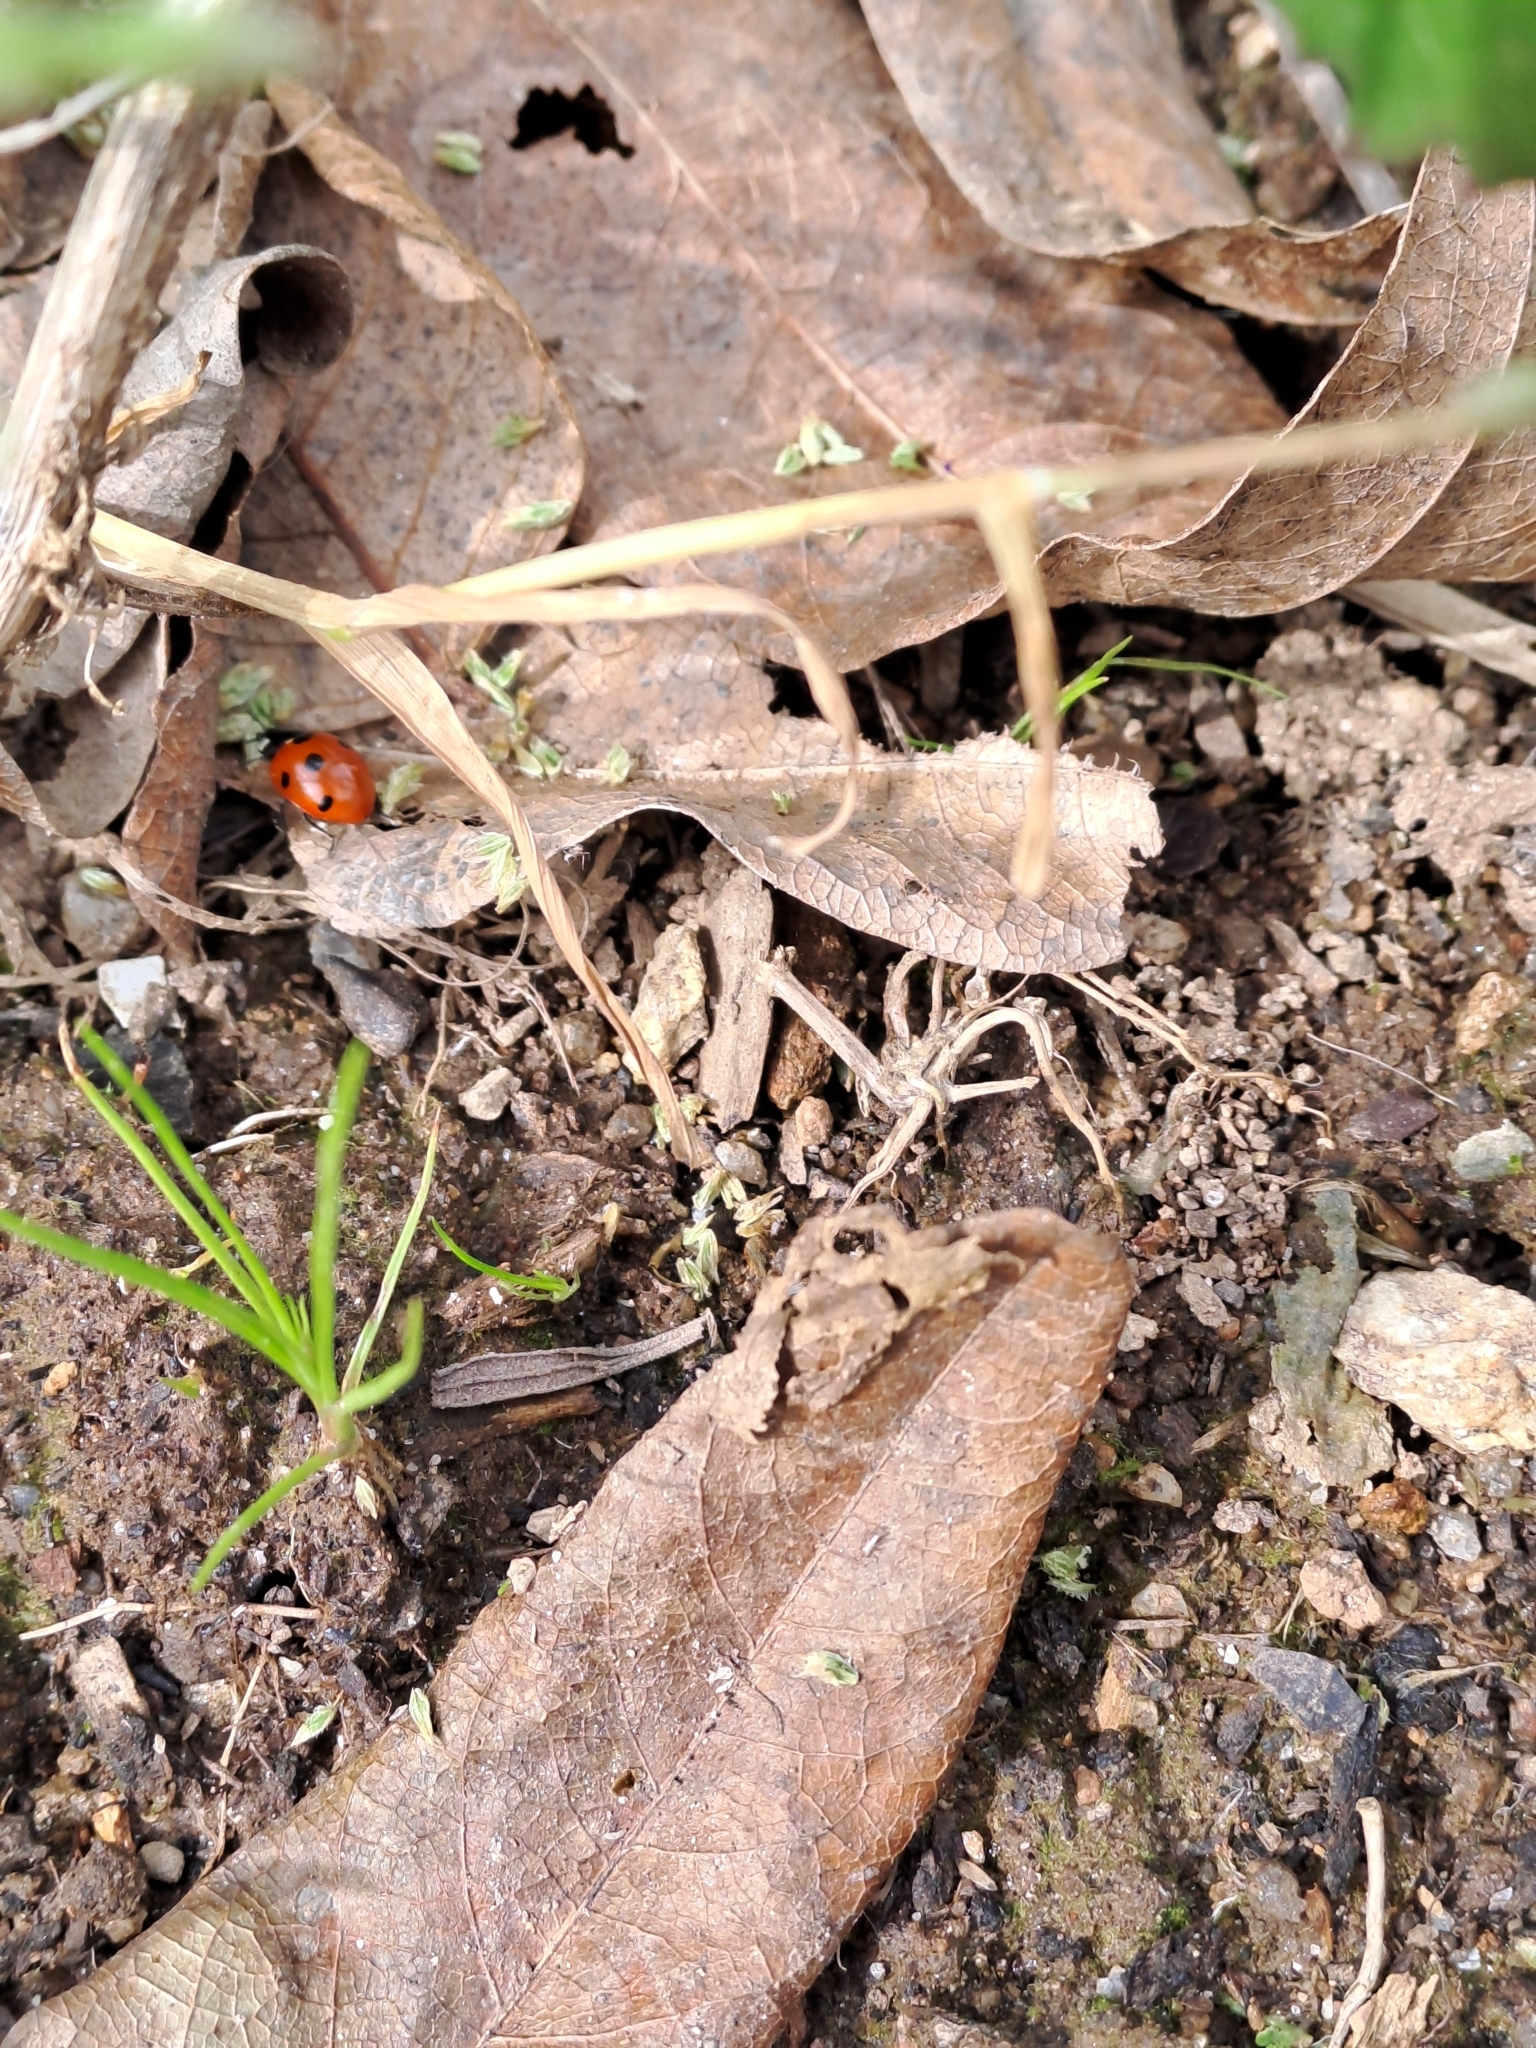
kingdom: Animalia
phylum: Arthropoda
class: Insecta
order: Coleoptera
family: Coccinellidae
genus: Coccinella
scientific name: Coccinella septempunctata
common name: Sevenspotted lady beetle
